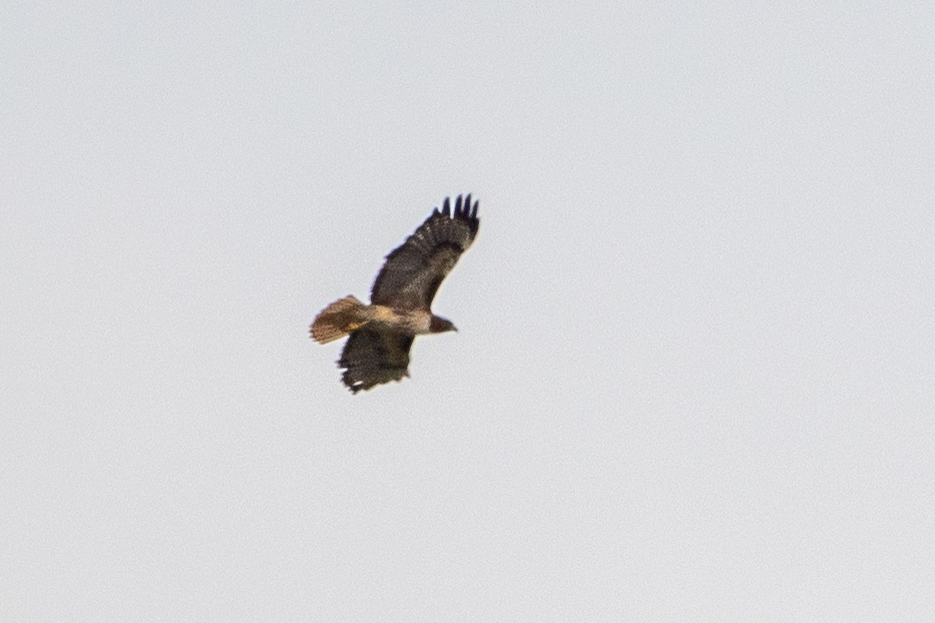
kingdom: Animalia
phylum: Chordata
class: Aves
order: Accipitriformes
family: Accipitridae
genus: Buteo
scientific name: Buteo jamaicensis
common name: Red-tailed hawk
